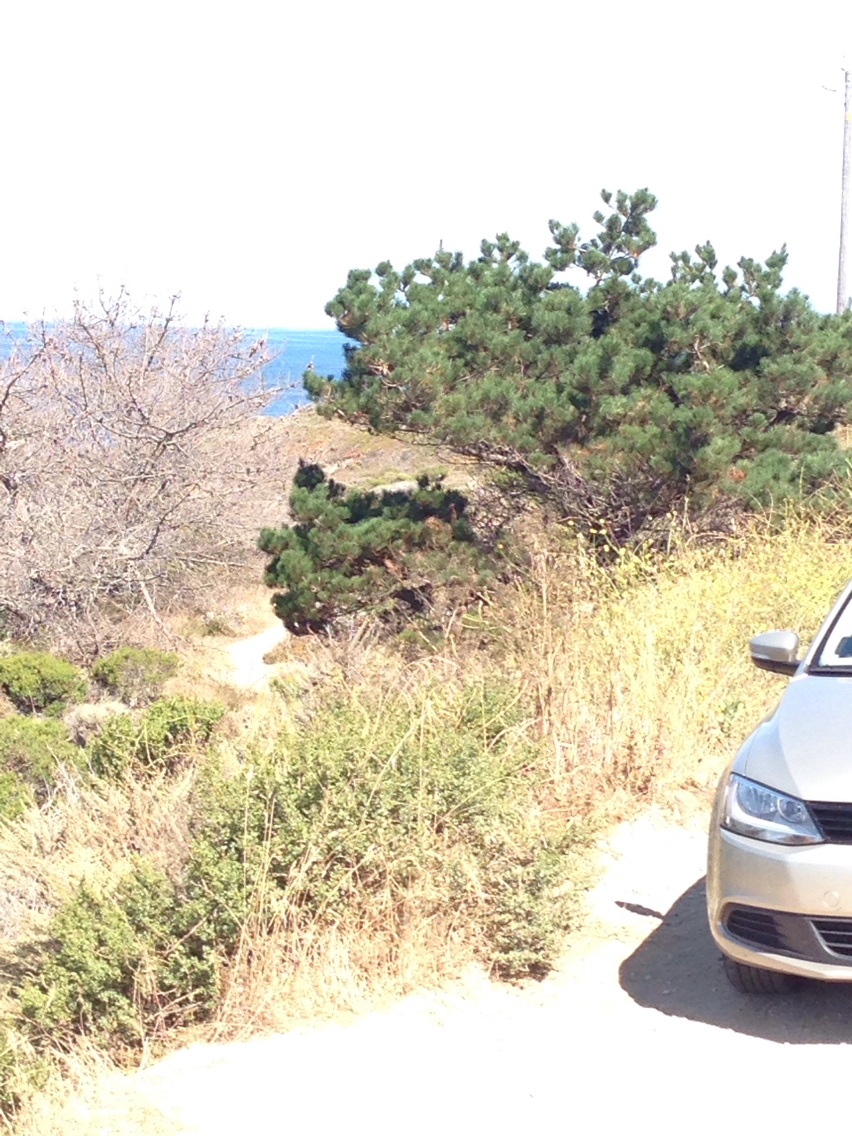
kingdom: Plantae
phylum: Tracheophyta
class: Pinopsida
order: Pinales
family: Pinaceae
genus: Pinus
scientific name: Pinus radiata
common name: Monterey pine
